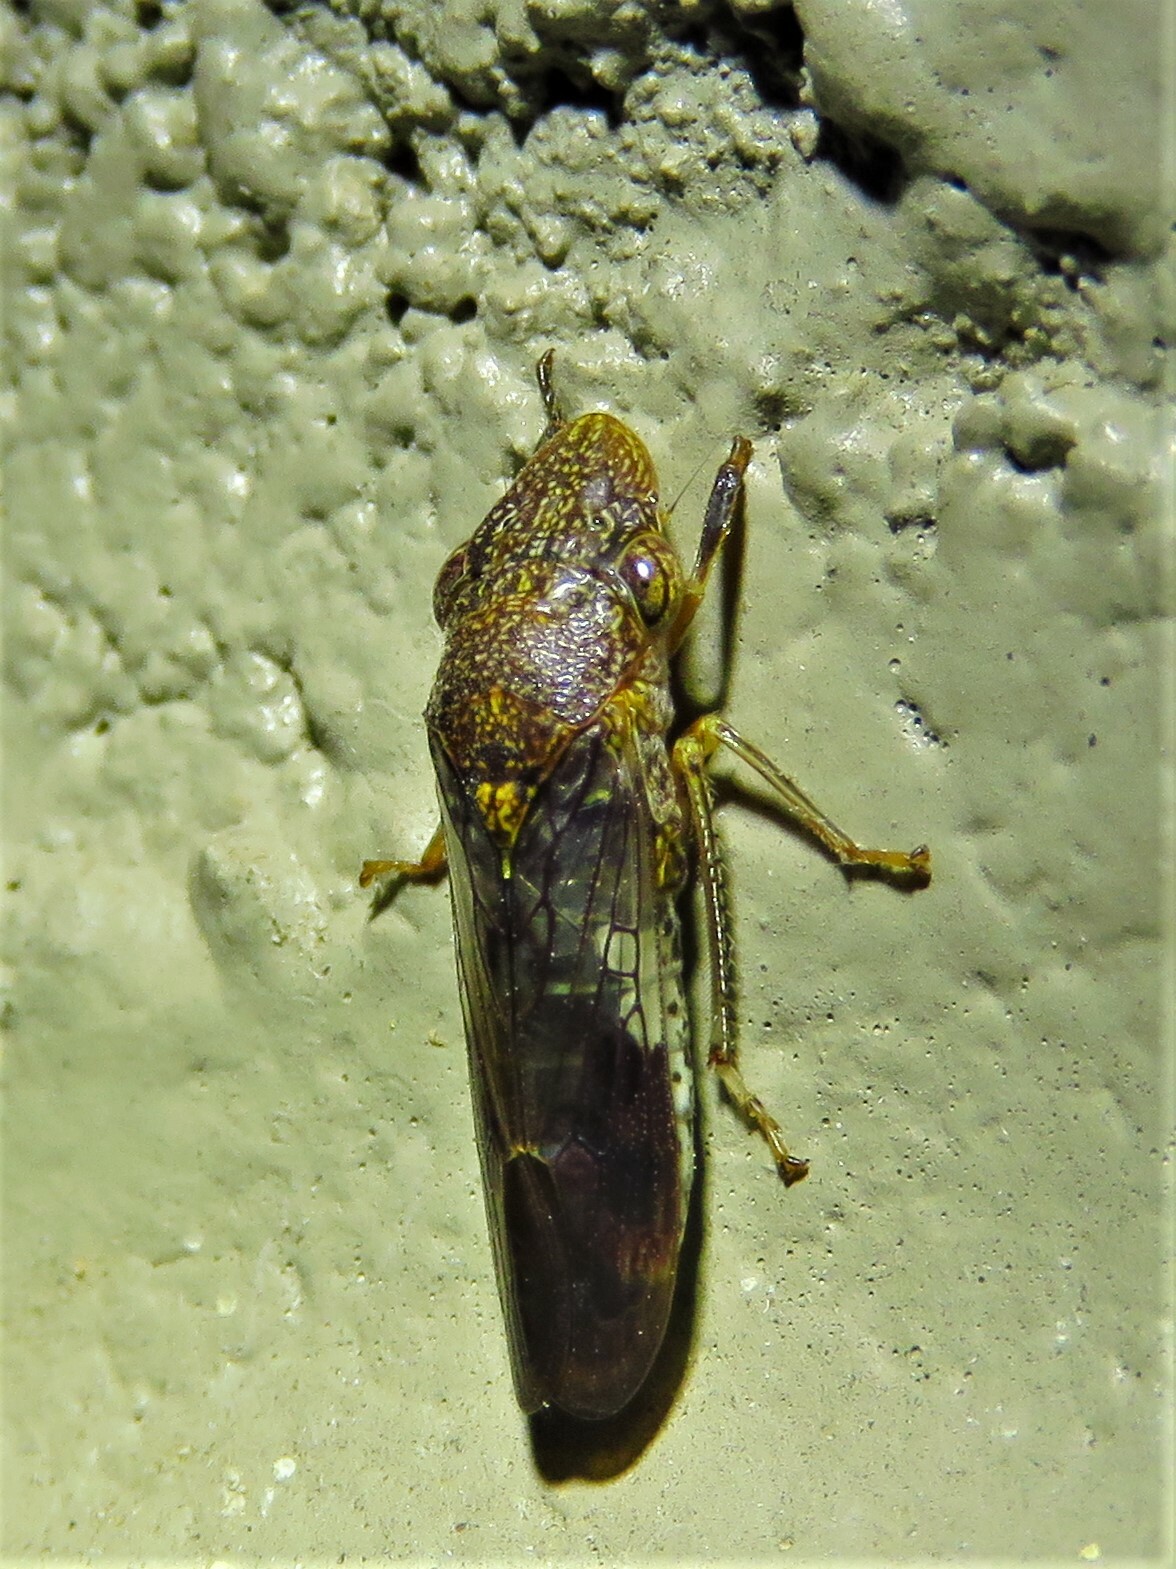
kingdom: Animalia
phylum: Arthropoda
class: Insecta
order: Hemiptera
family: Cicadellidae
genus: Homalodisca
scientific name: Homalodisca vitripennis
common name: Glassy-winged sharpshooter
